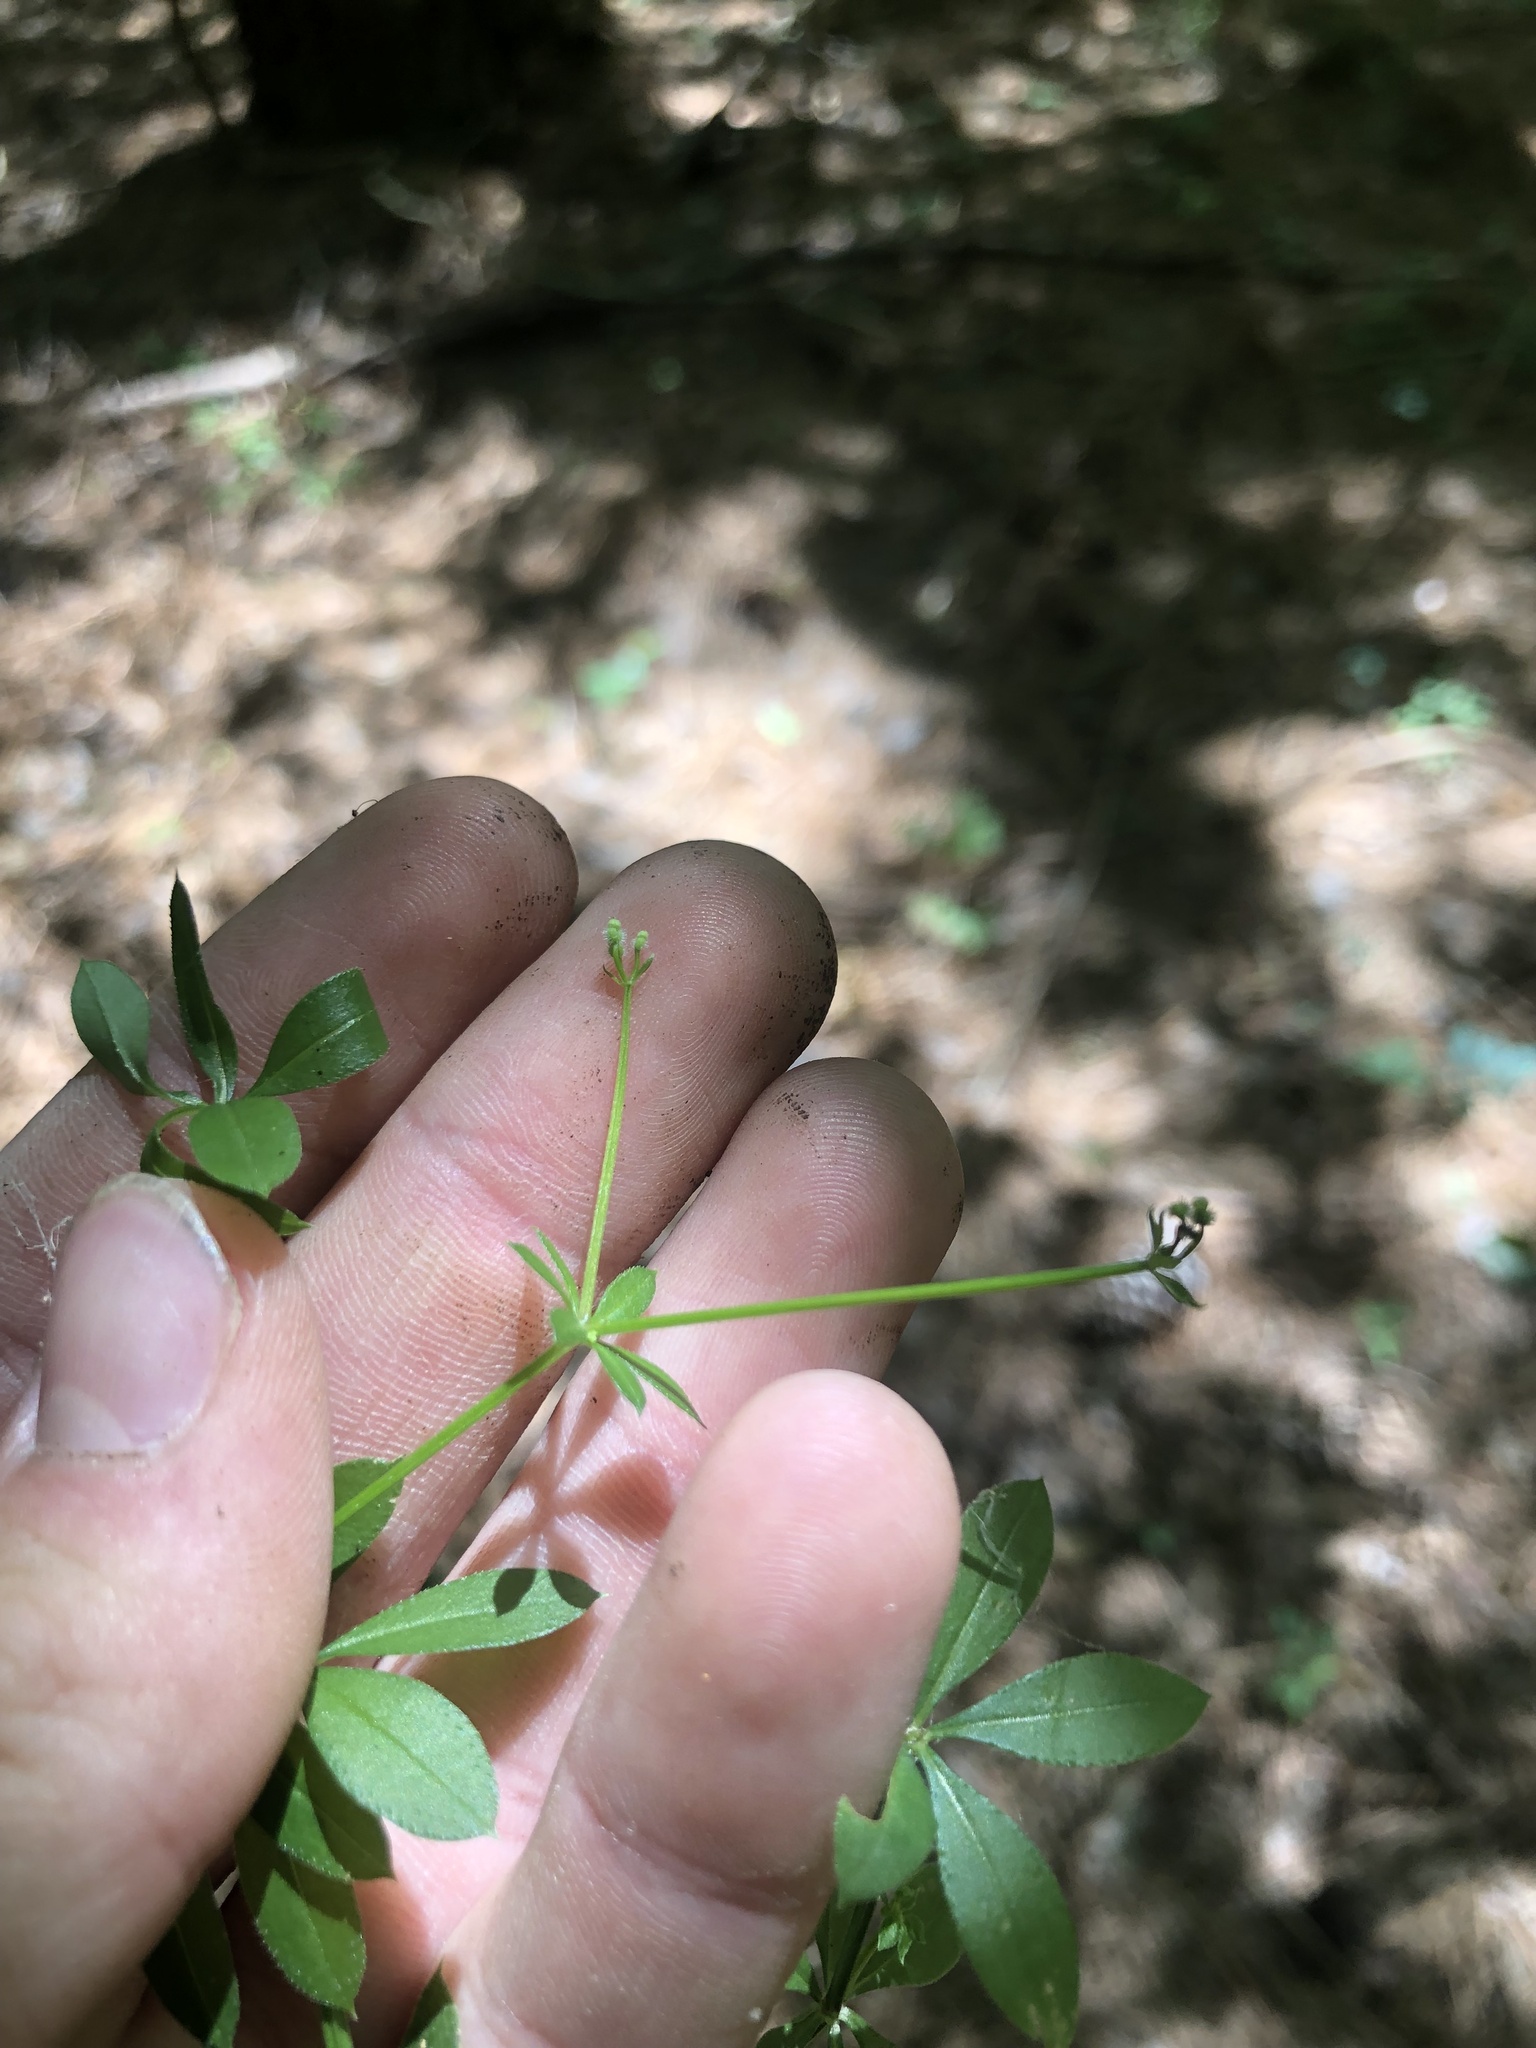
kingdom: Plantae
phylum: Tracheophyta
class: Magnoliopsida
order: Gentianales
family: Rubiaceae
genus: Galium
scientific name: Galium triflorum
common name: Fragrant bedstraw
